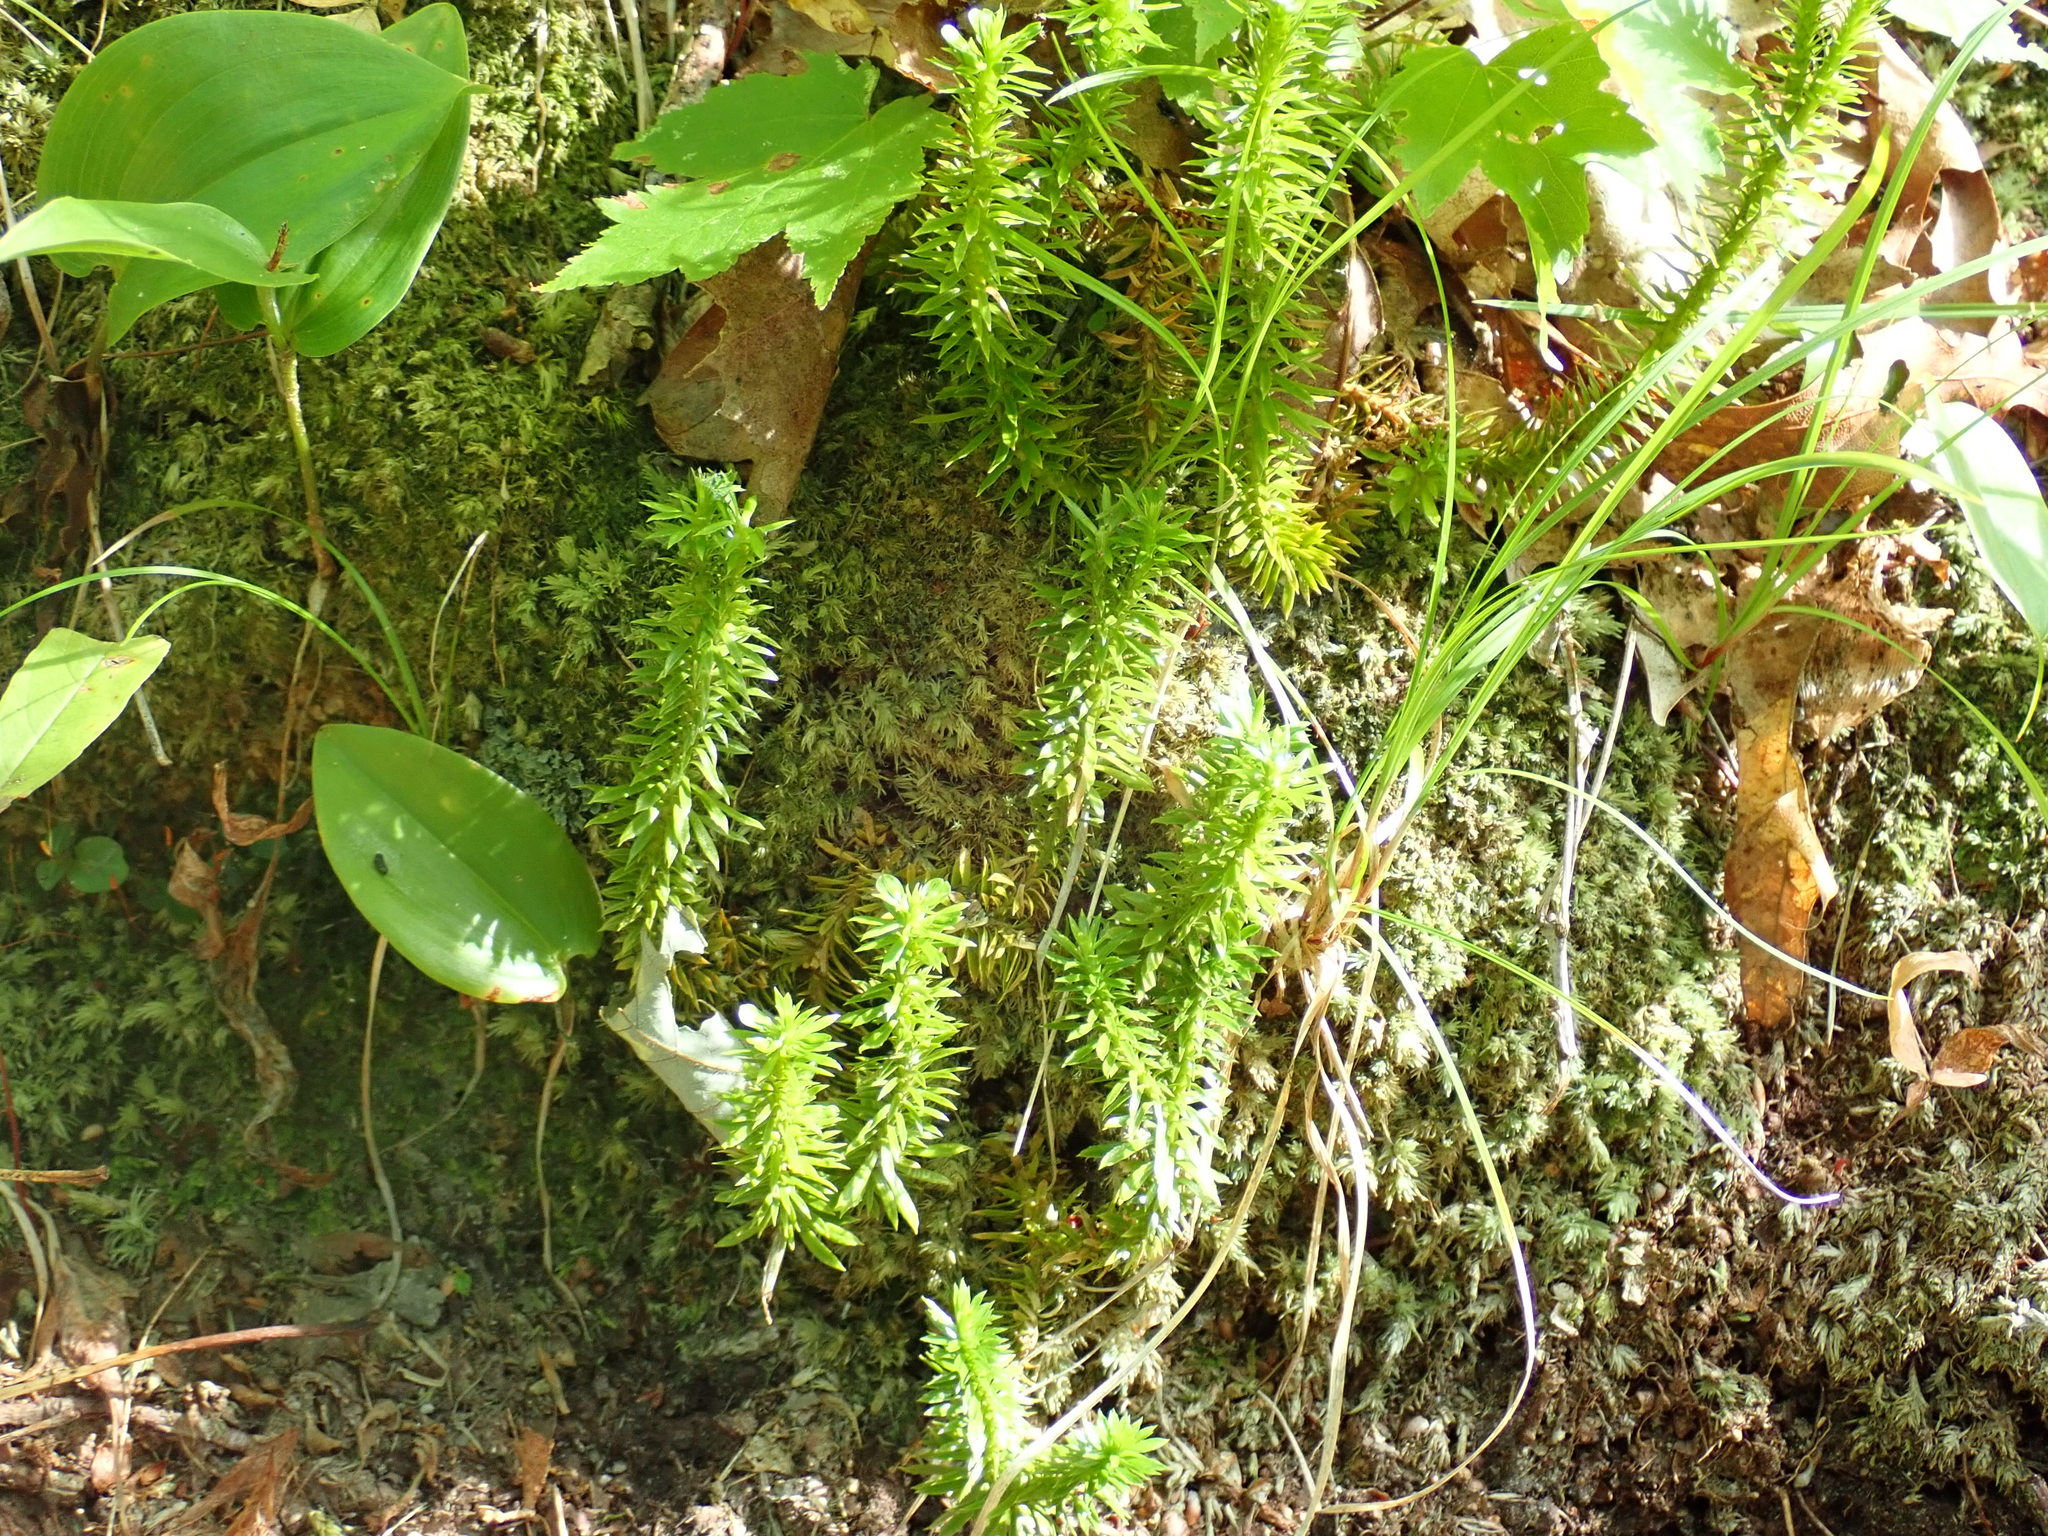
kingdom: Plantae
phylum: Tracheophyta
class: Lycopodiopsida
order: Lycopodiales
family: Lycopodiaceae
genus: Huperzia
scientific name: Huperzia lucidula
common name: Shining clubmoss
